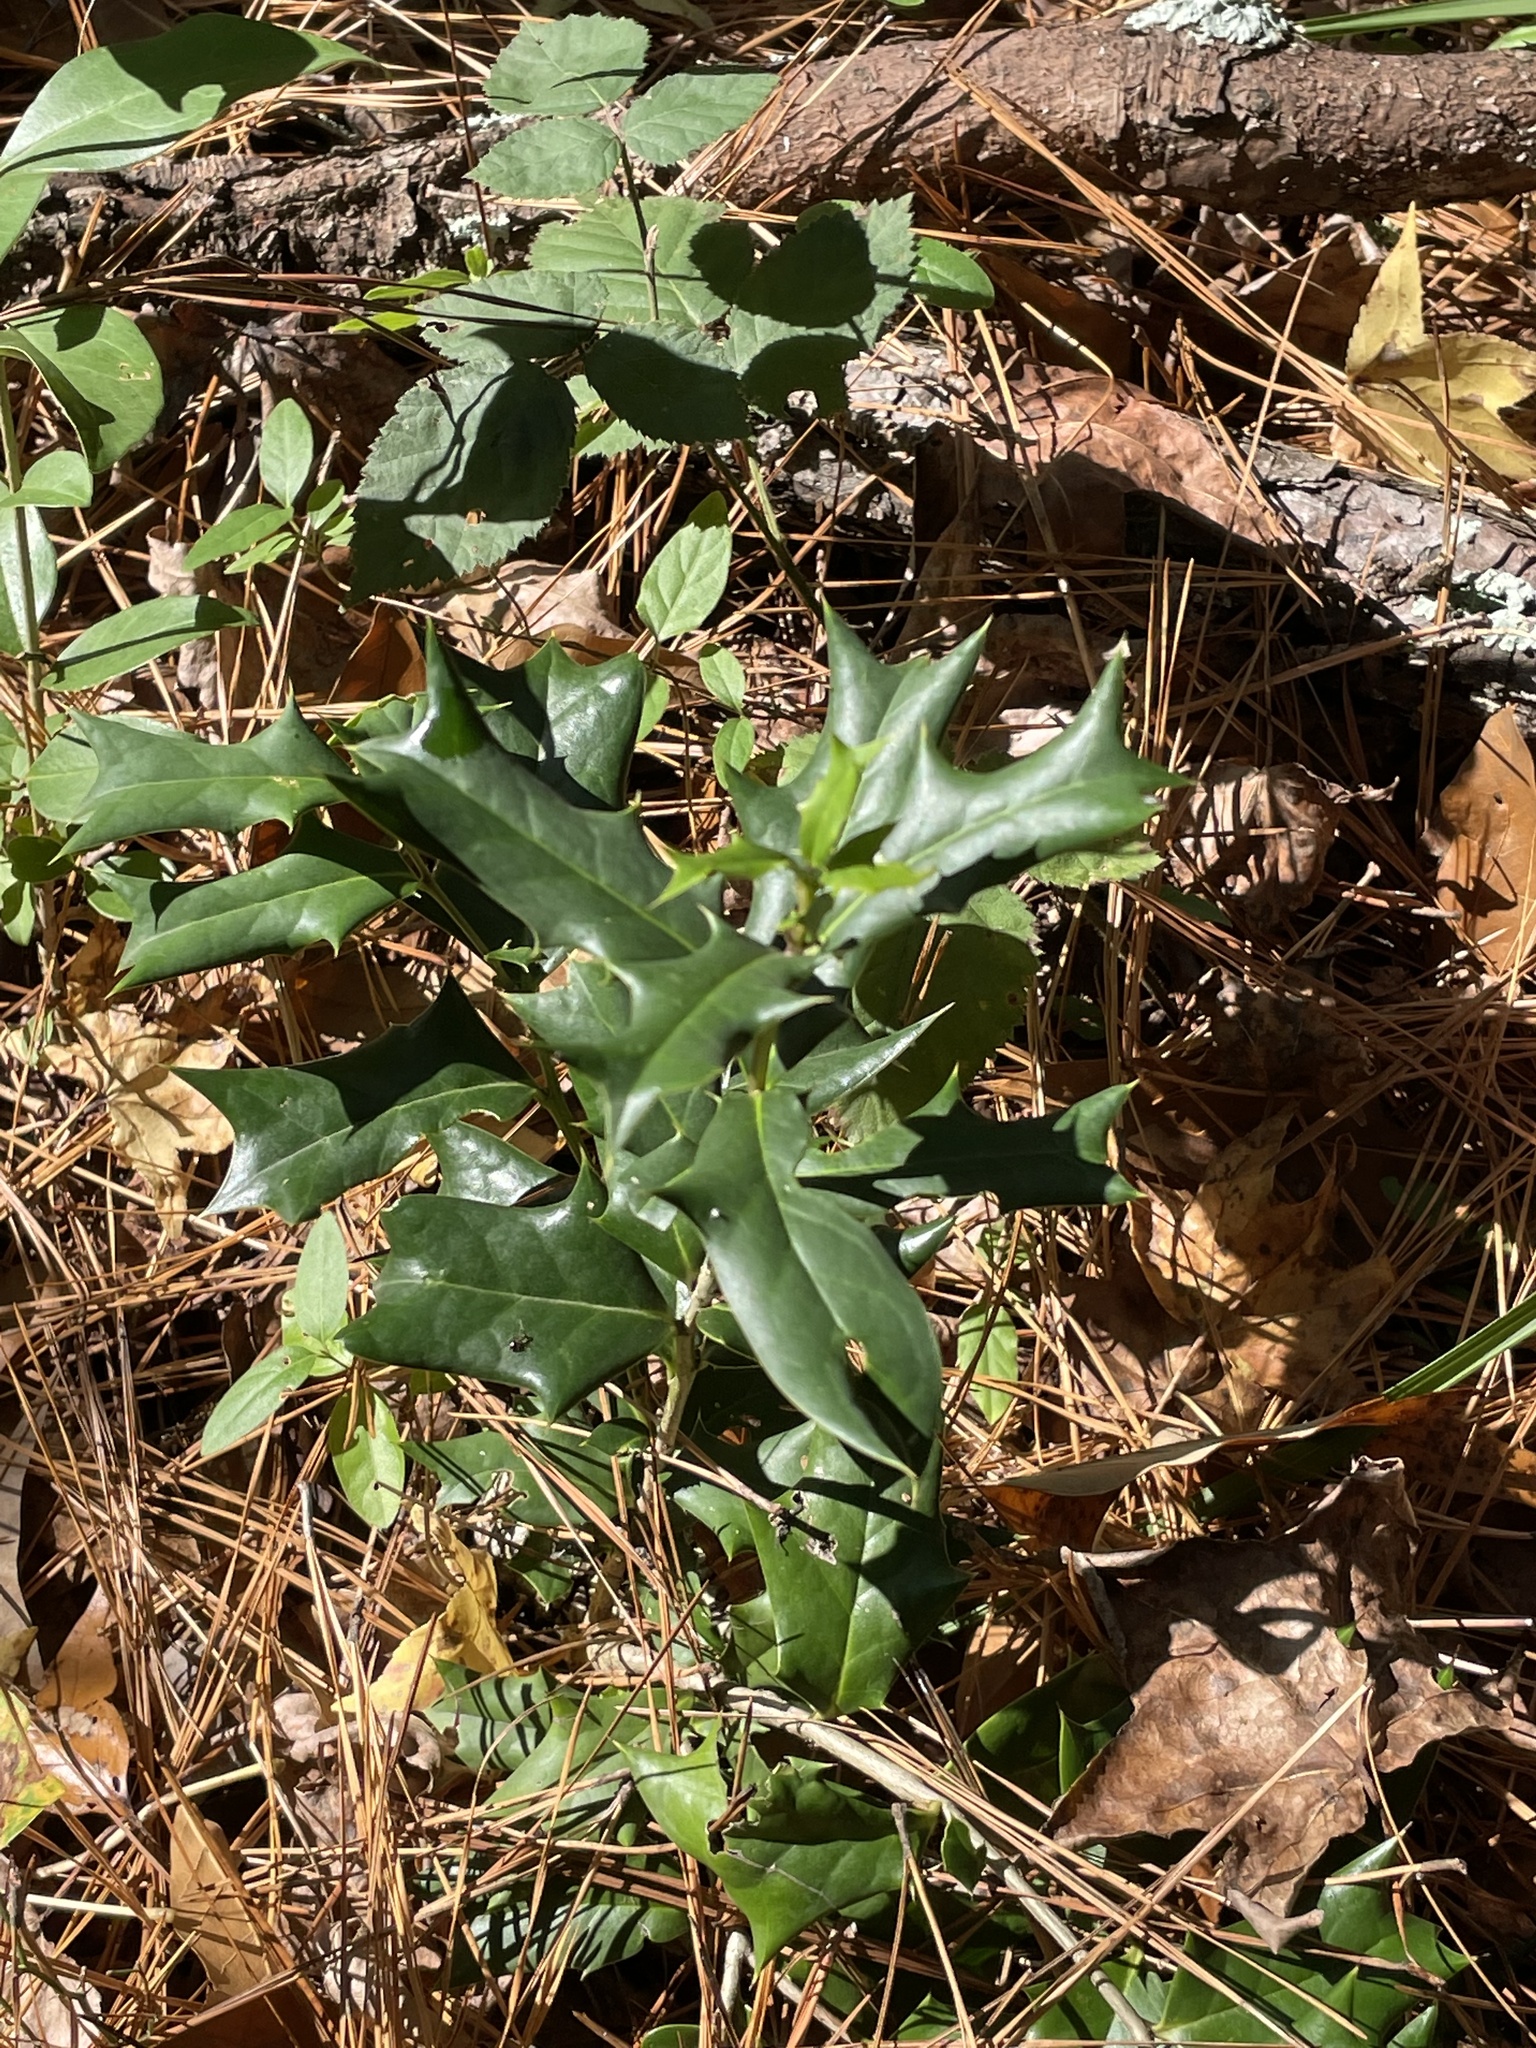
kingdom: Plantae
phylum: Tracheophyta
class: Magnoliopsida
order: Aquifoliales
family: Aquifoliaceae
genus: Ilex
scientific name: Ilex cornuta
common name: Chinese holly
